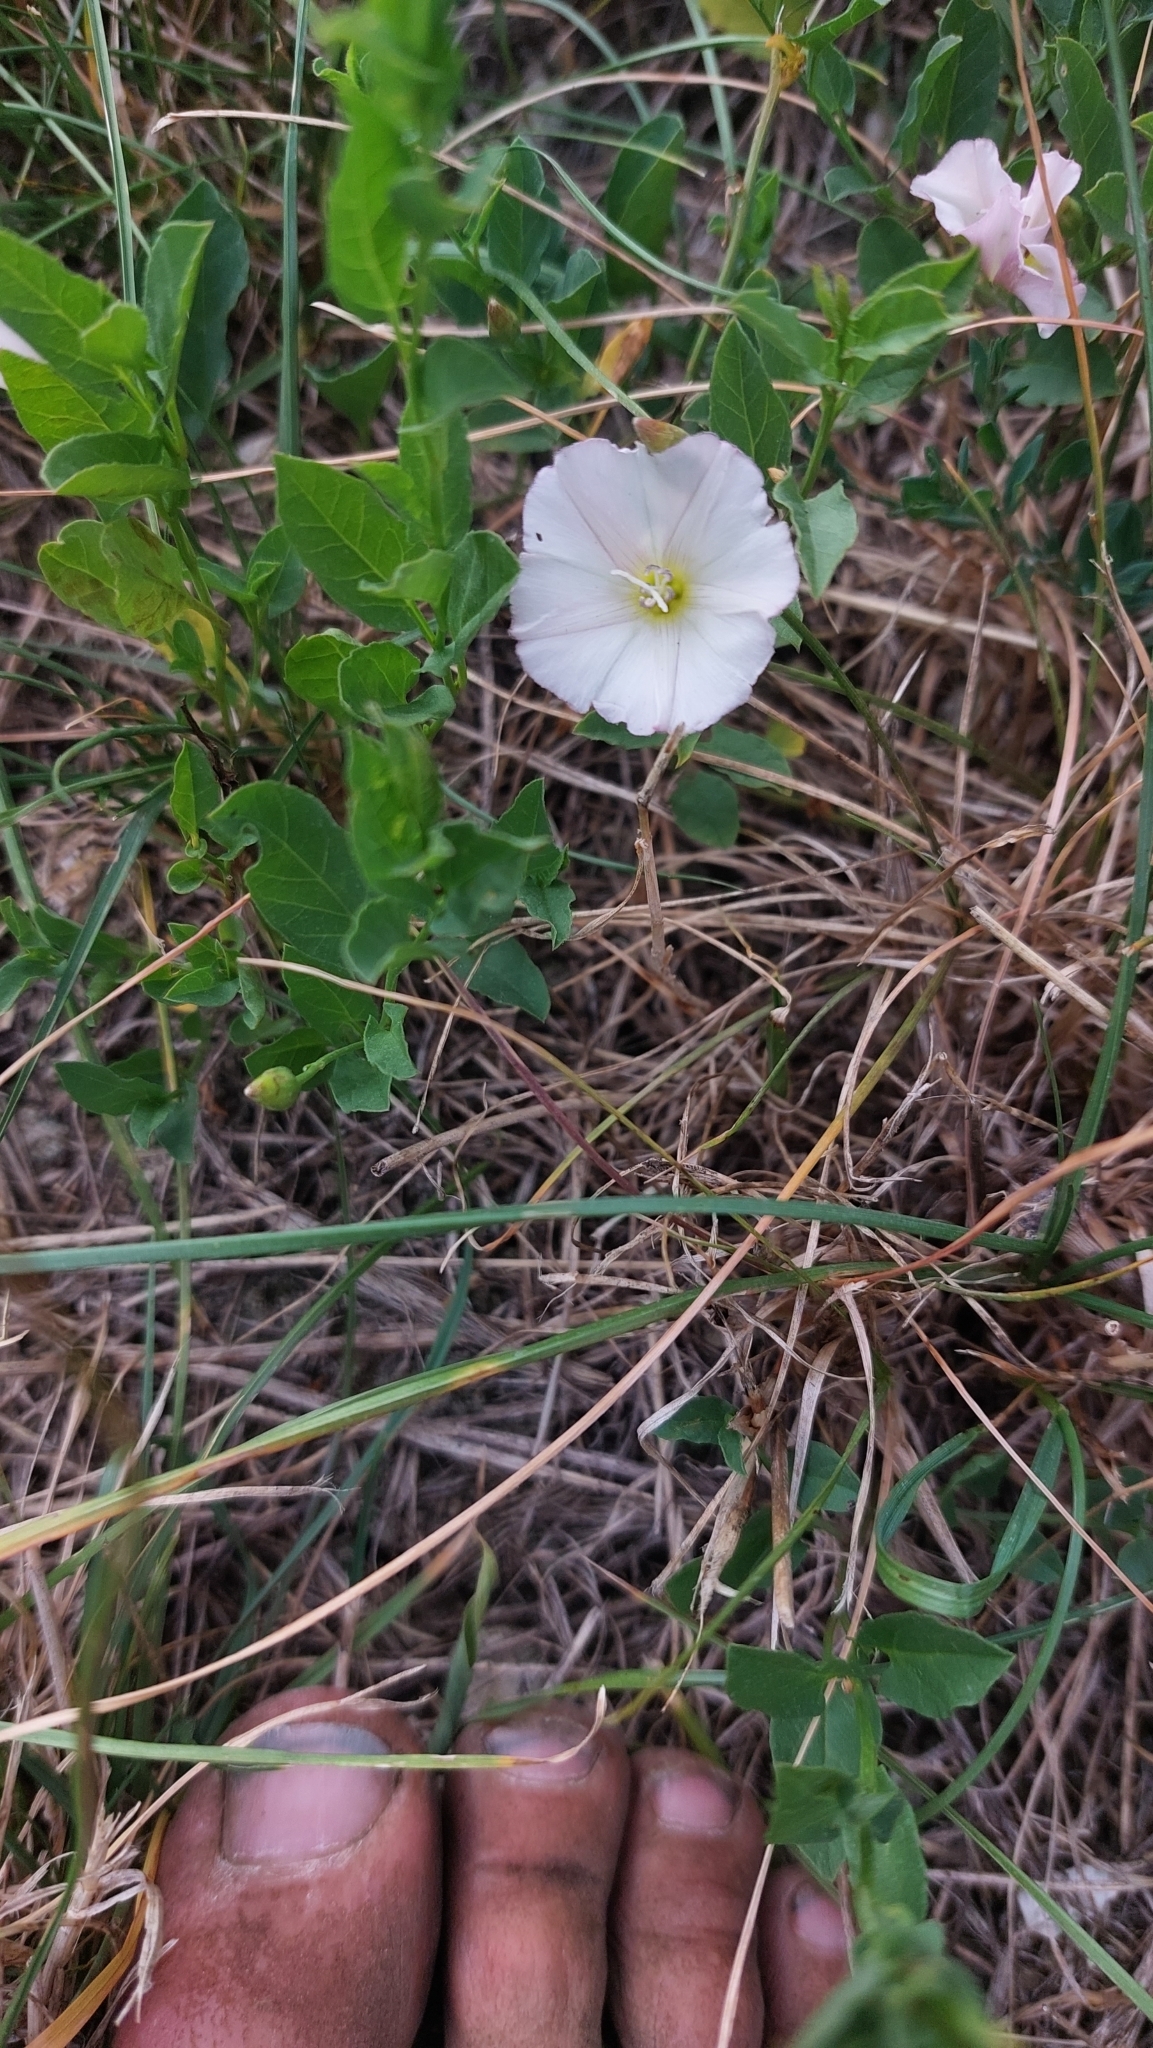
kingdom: Plantae
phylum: Tracheophyta
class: Magnoliopsida
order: Solanales
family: Convolvulaceae
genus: Convolvulus
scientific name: Convolvulus arvensis
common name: Field bindweed
